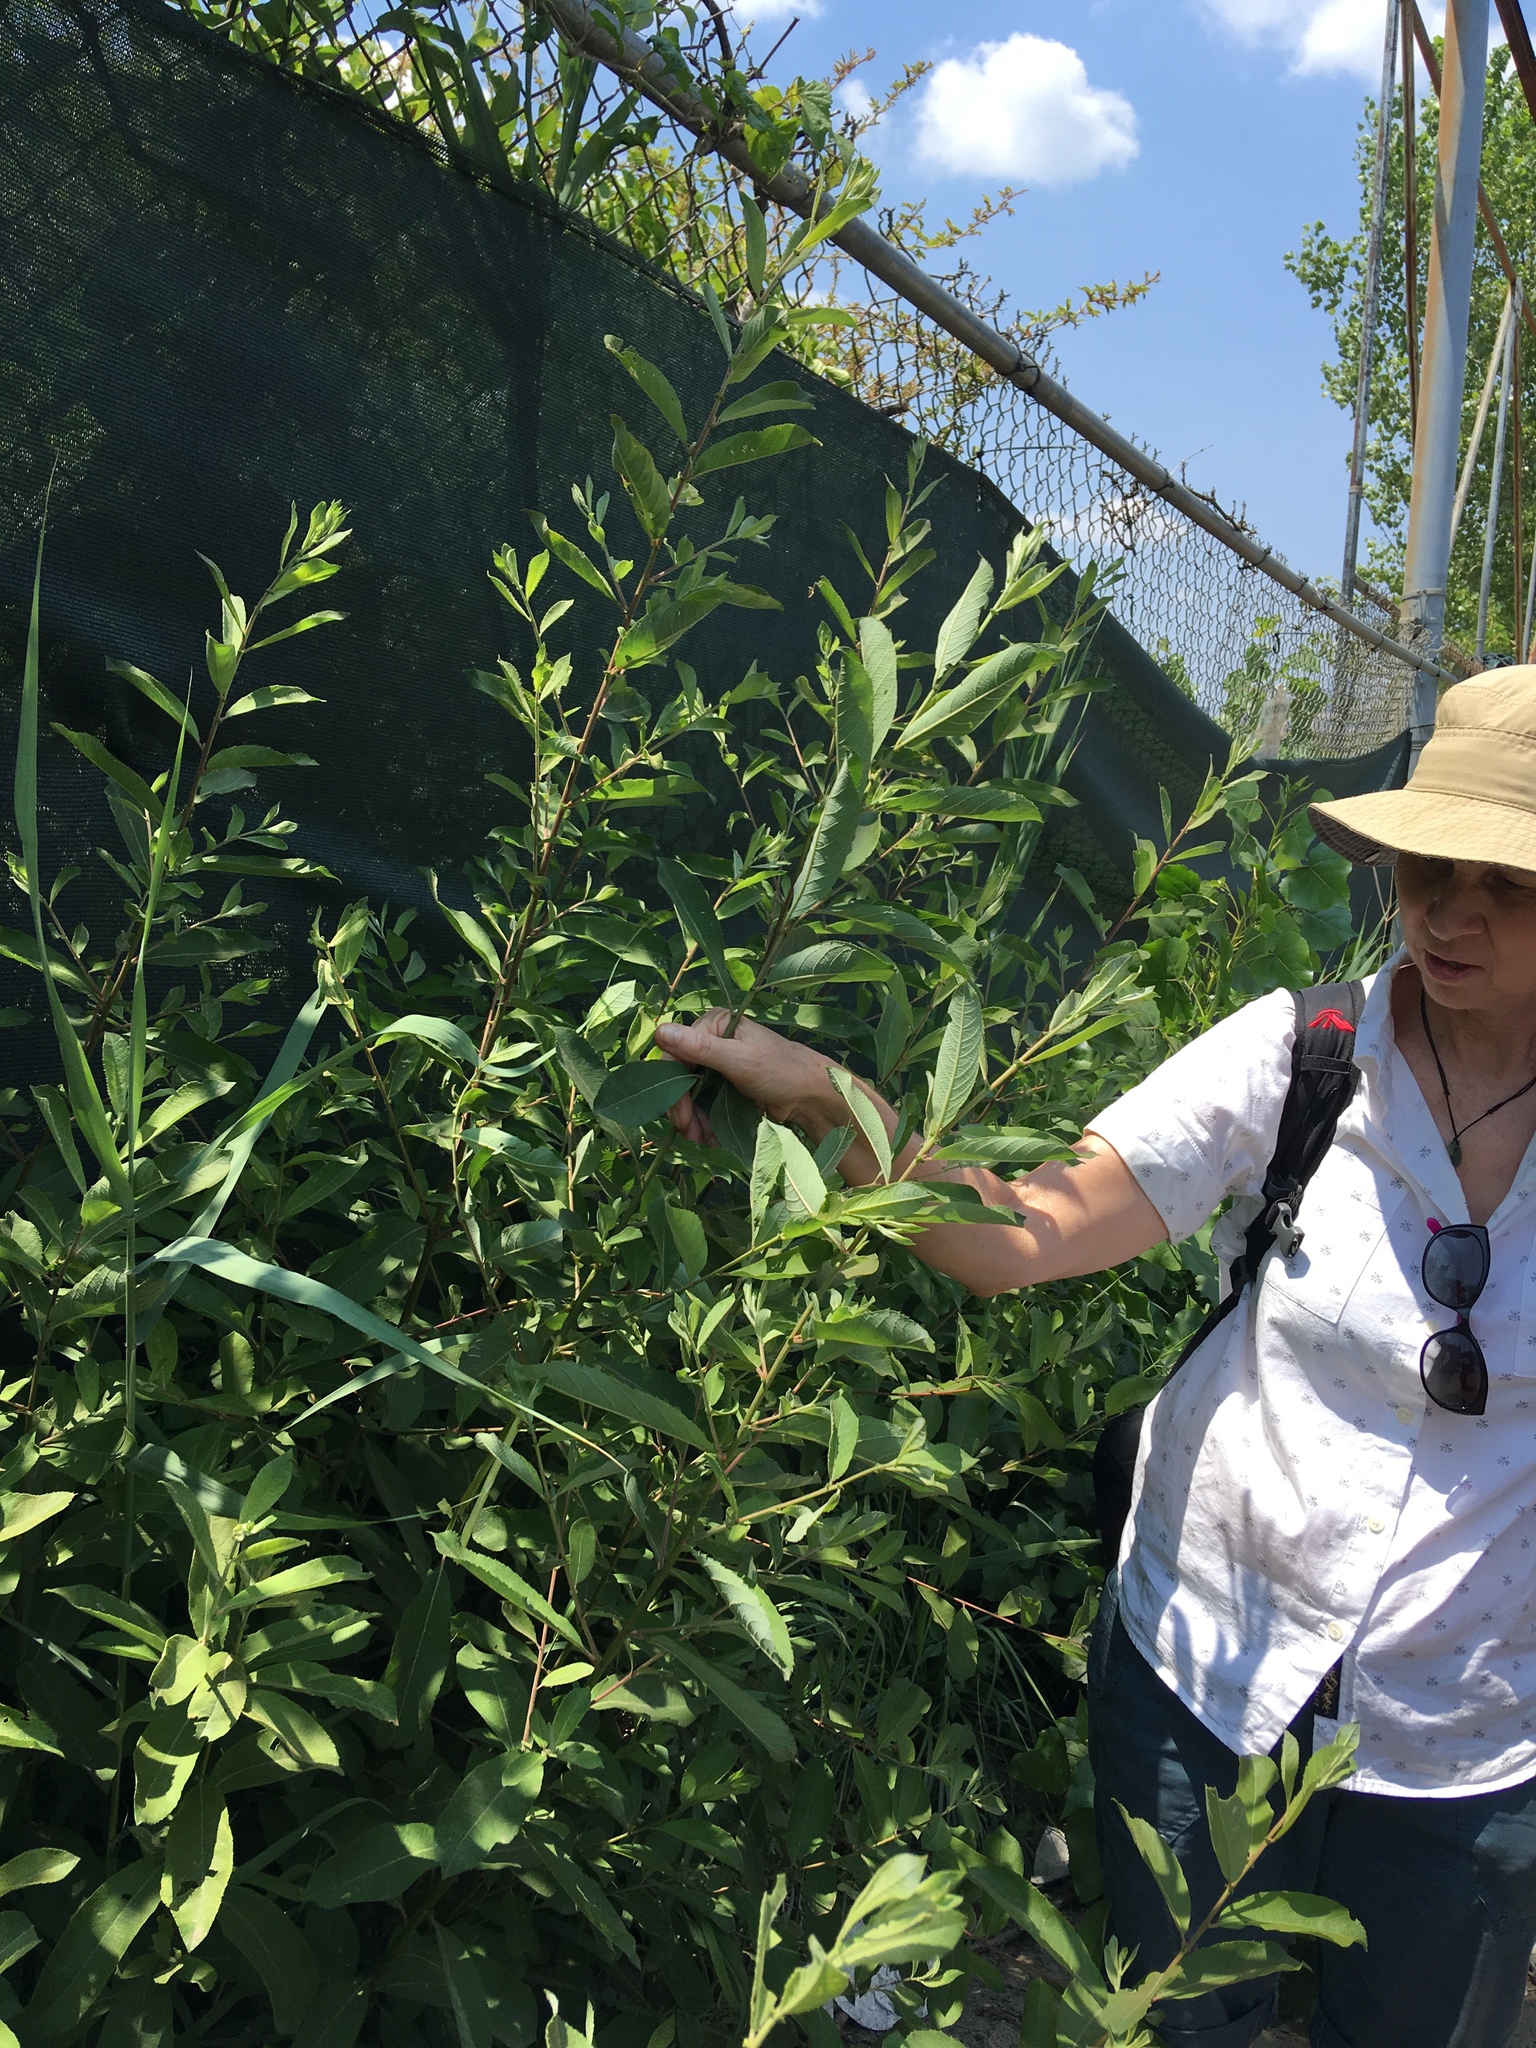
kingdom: Plantae
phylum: Tracheophyta
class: Magnoliopsida
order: Malpighiales
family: Salicaceae
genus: Salix
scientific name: Salix atrocinerea
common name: Rusty willow
